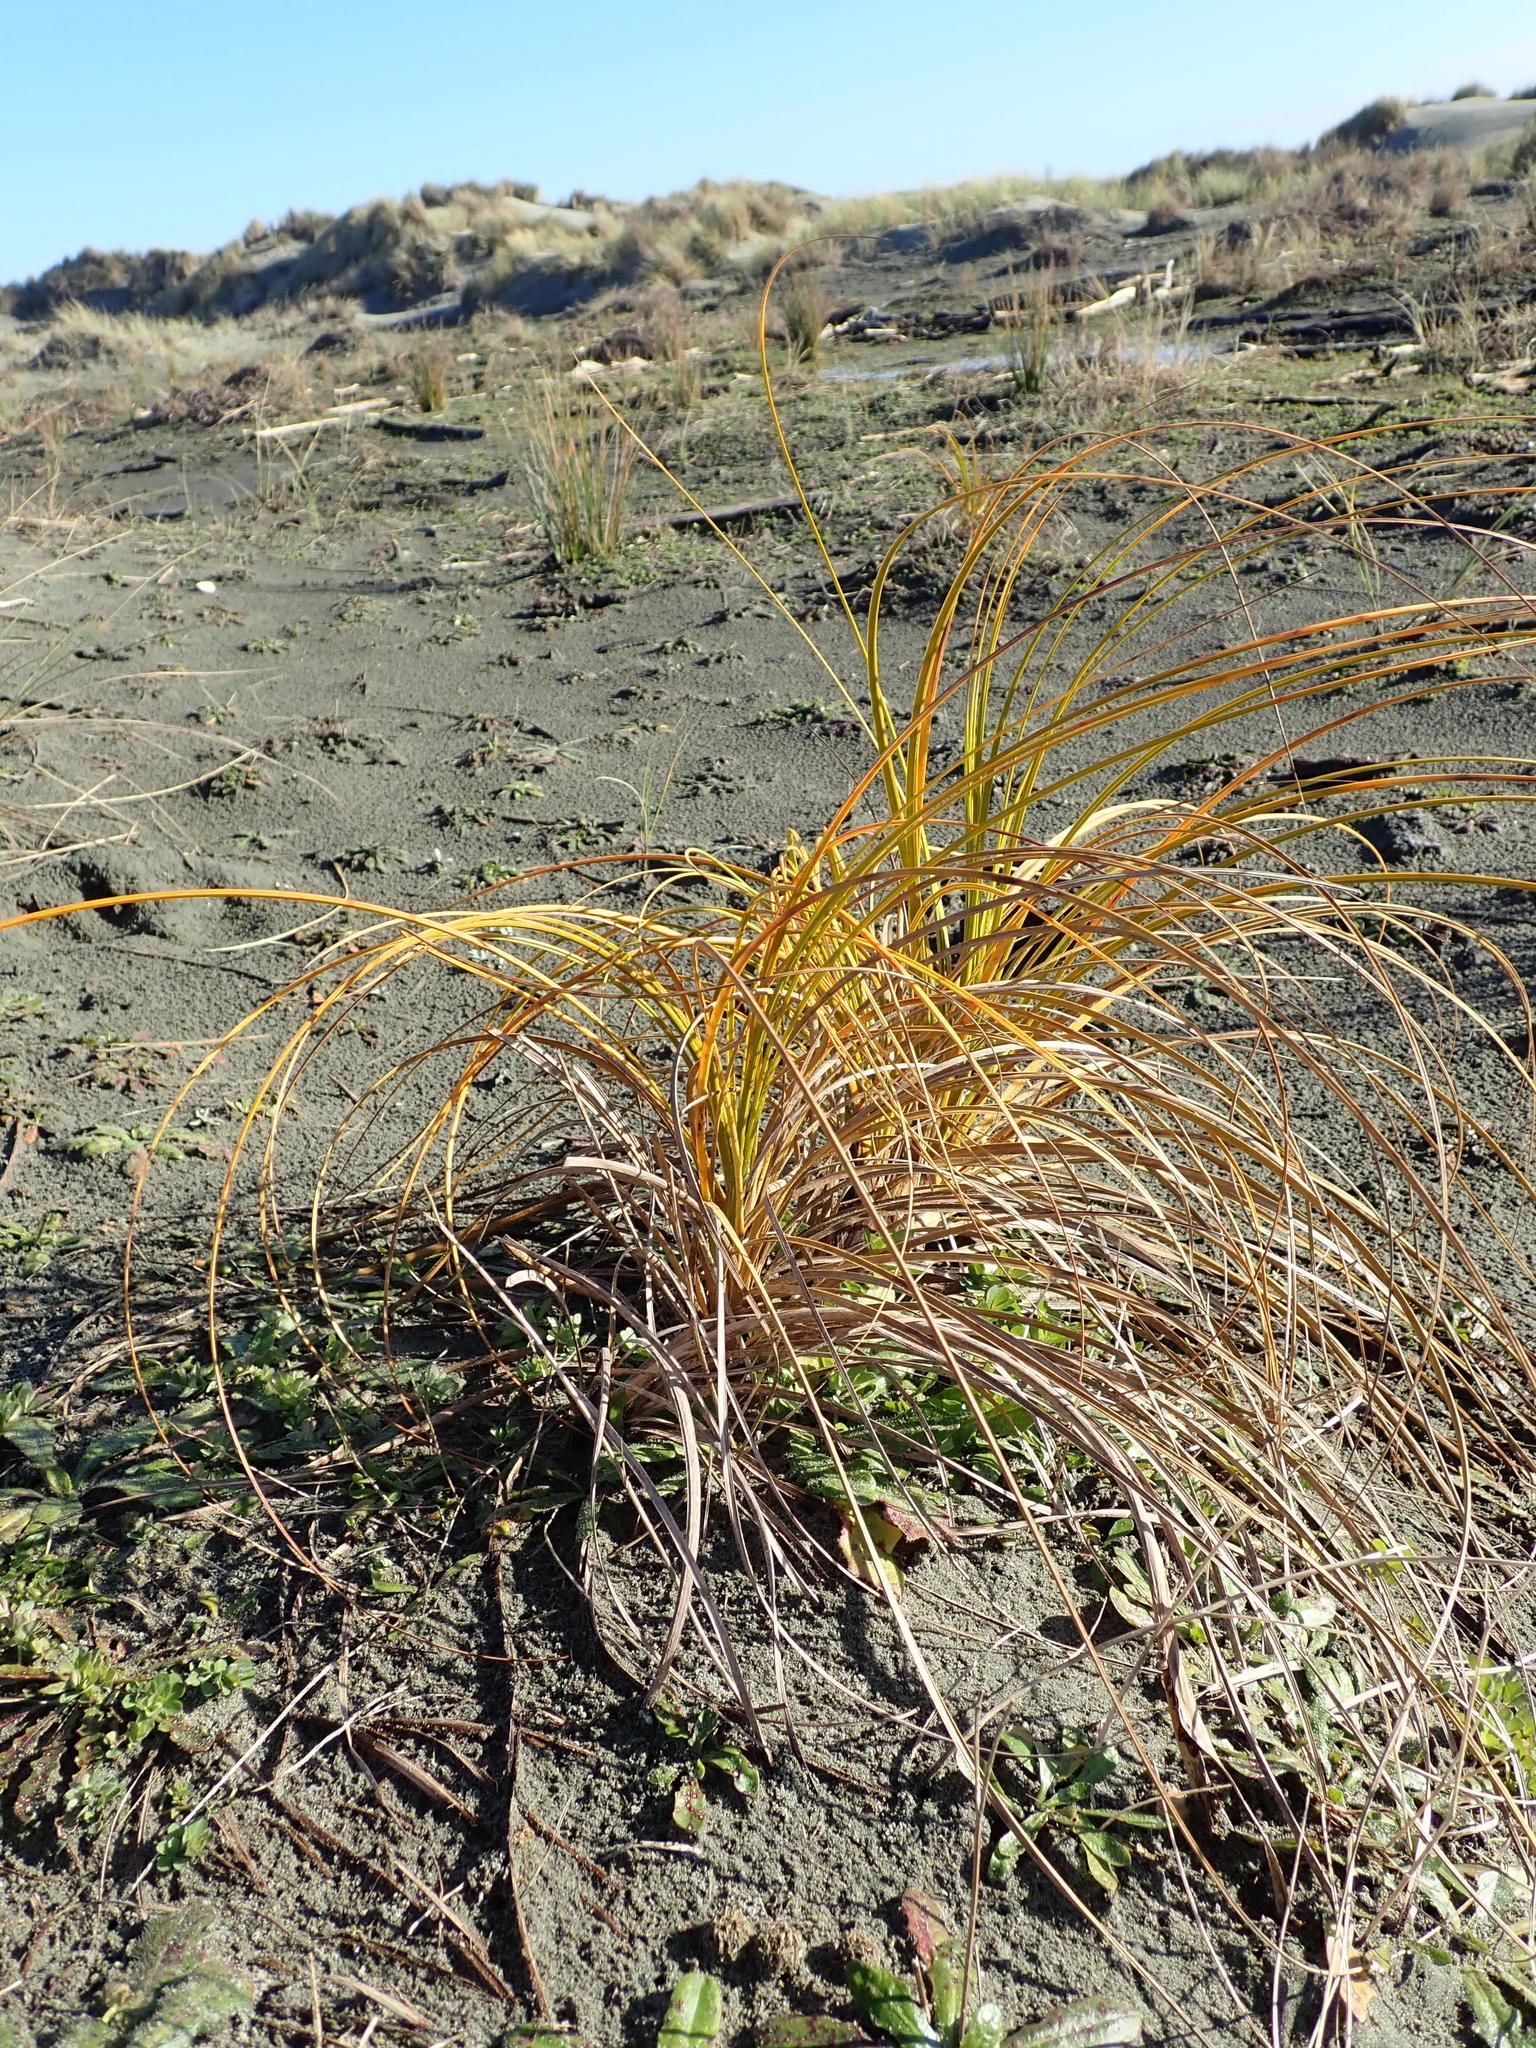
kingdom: Plantae
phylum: Tracheophyta
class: Liliopsida
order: Poales
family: Cyperaceae
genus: Ficinia
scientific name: Ficinia spiralis
